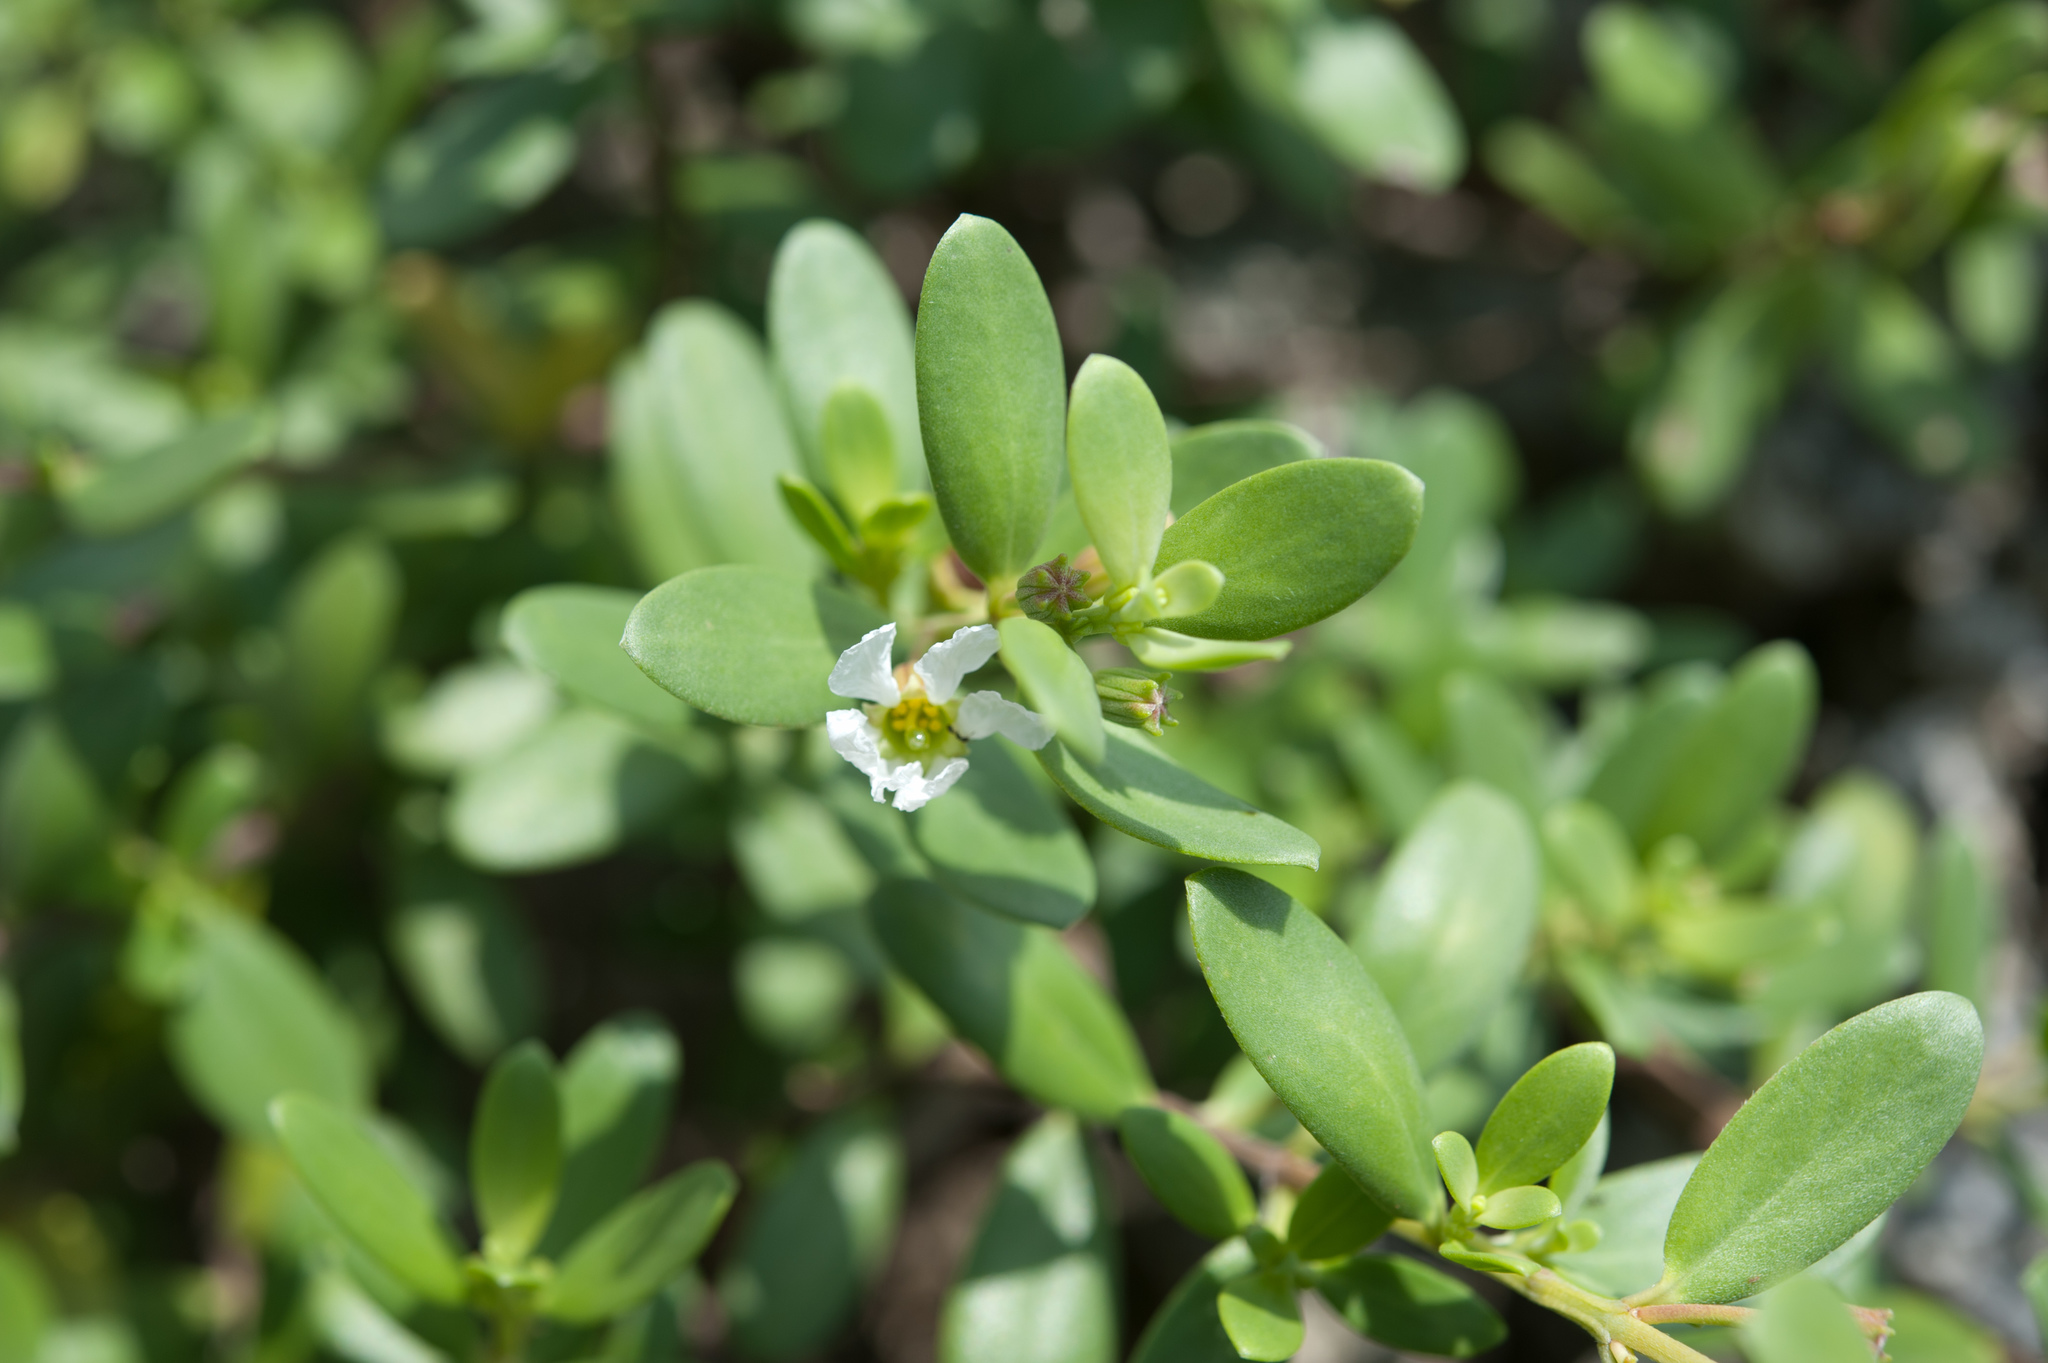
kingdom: Plantae
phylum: Tracheophyta
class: Magnoliopsida
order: Myrtales
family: Lythraceae
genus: Pemphis
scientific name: Pemphis acidula
